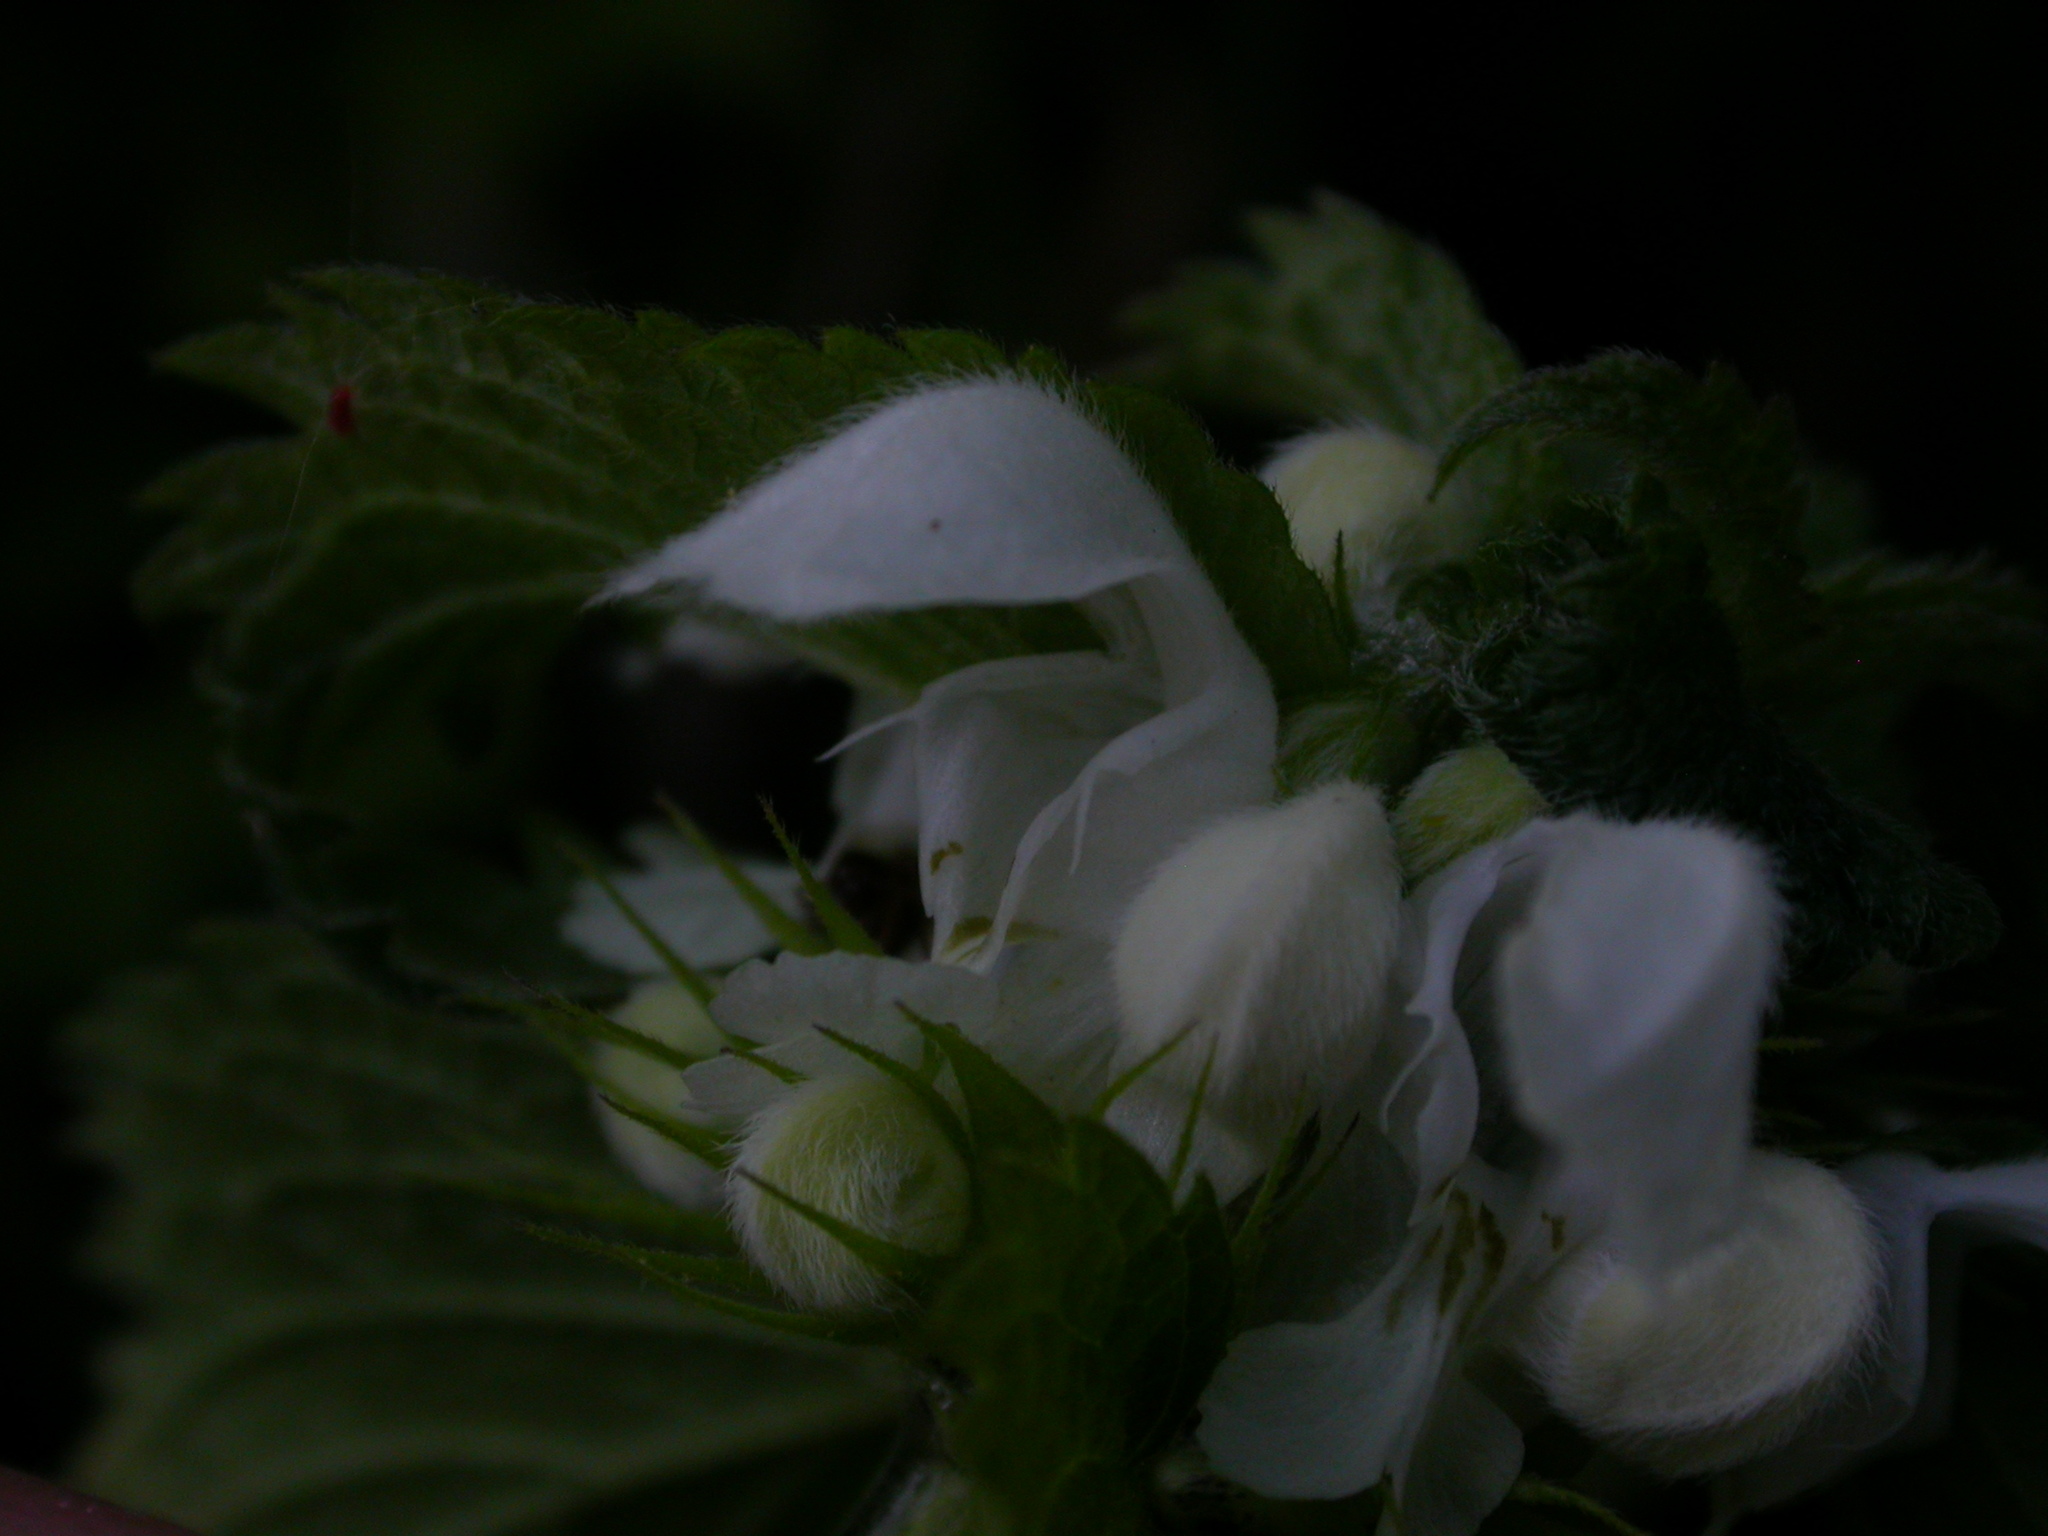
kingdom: Plantae
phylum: Tracheophyta
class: Magnoliopsida
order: Lamiales
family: Lamiaceae
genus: Lamium
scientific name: Lamium album
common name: White dead-nettle
